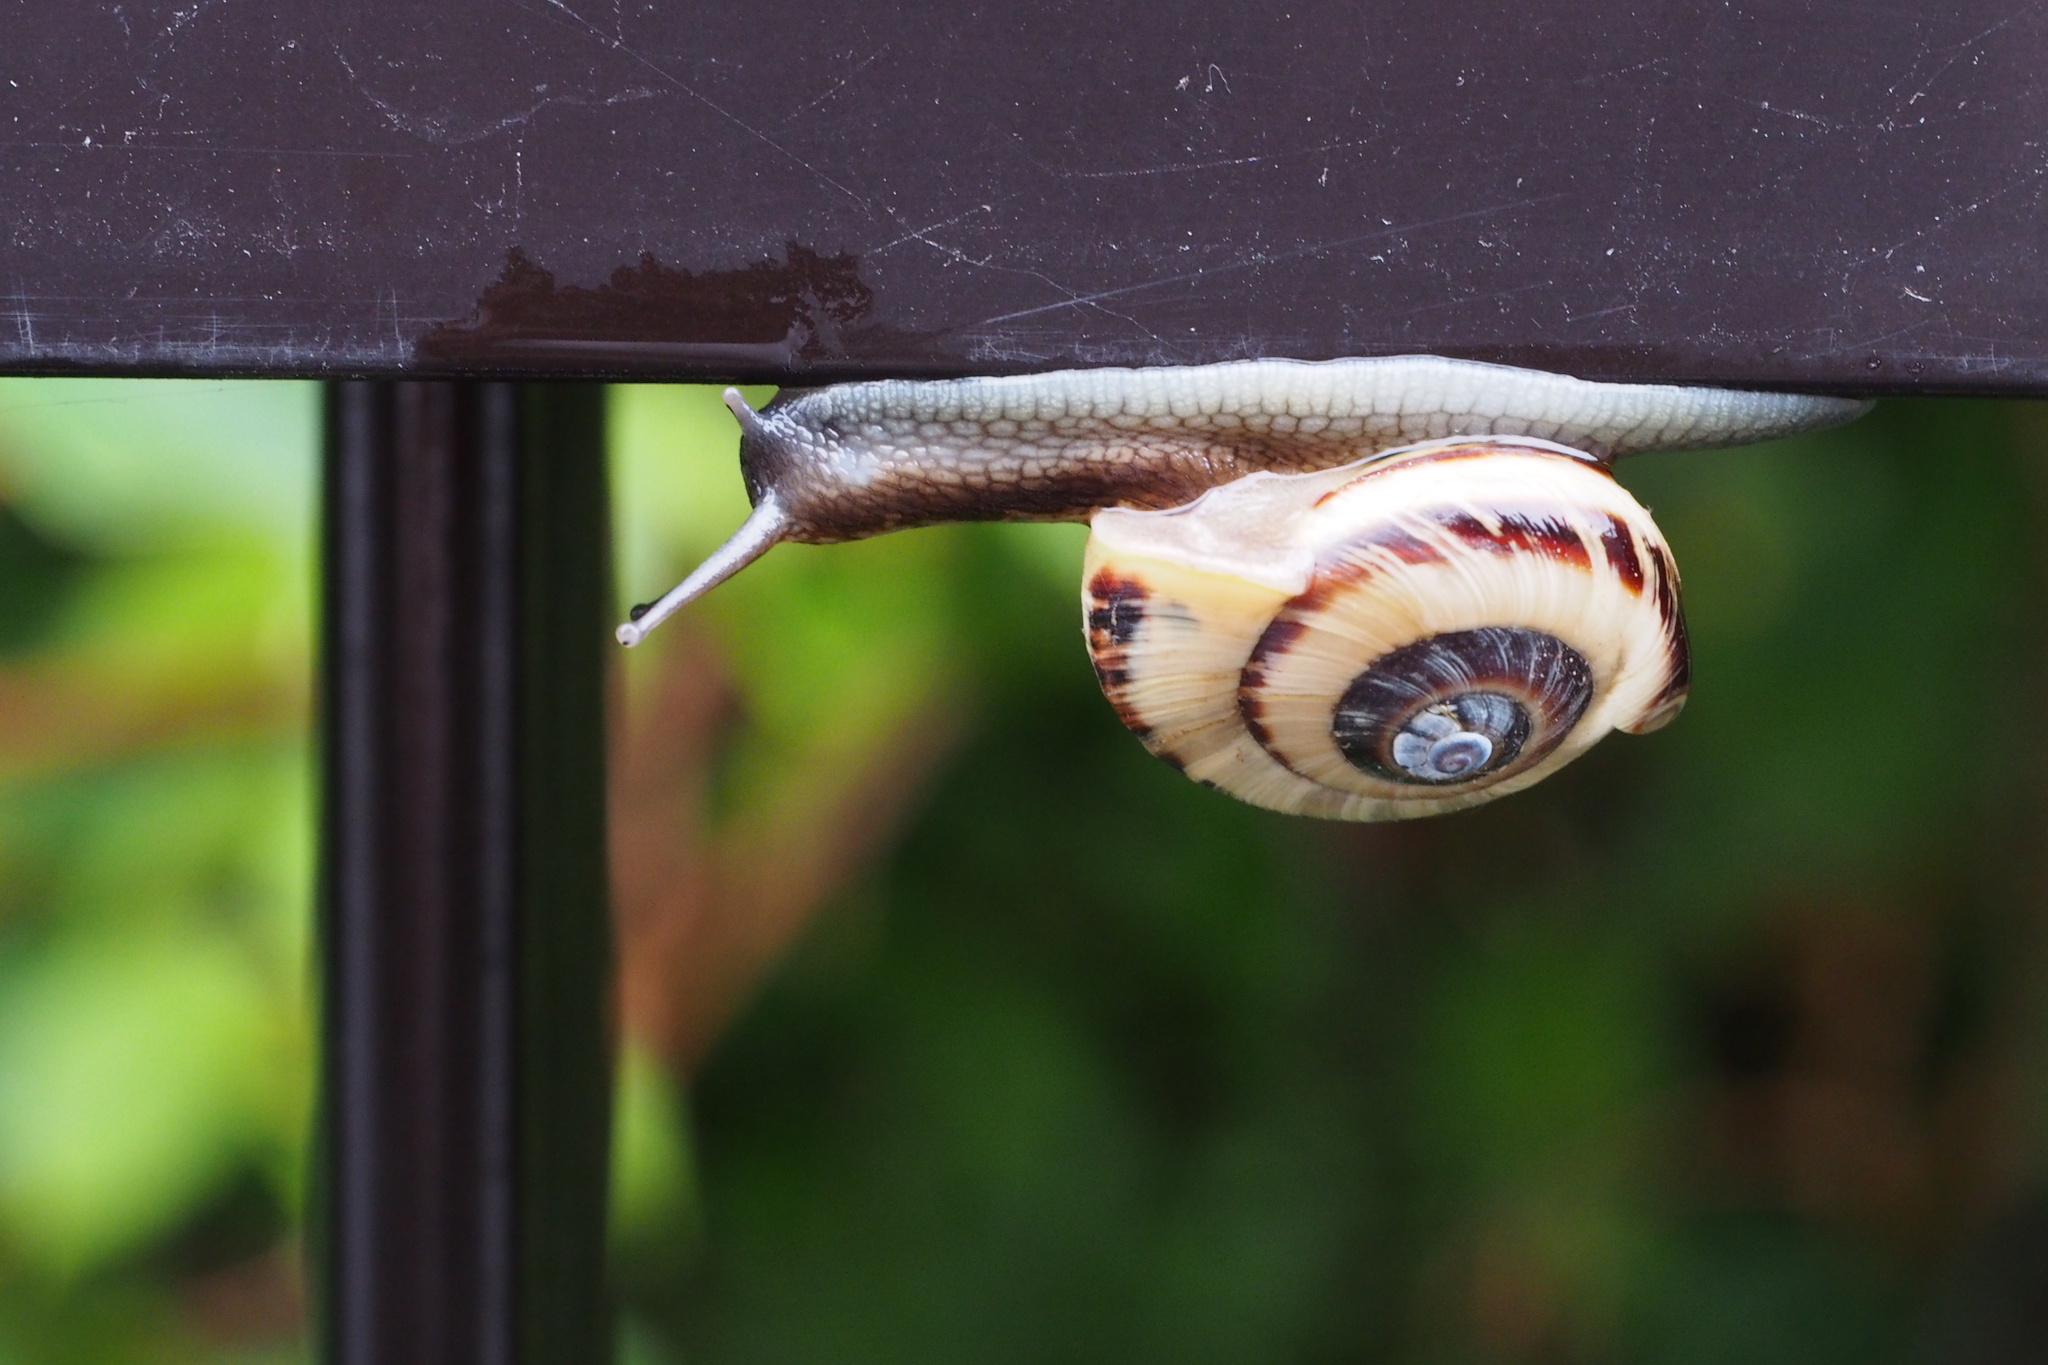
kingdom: Animalia
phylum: Mollusca
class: Gastropoda
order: Stylommatophora
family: Camaenidae
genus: Euhadra
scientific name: Euhadra brandtii
